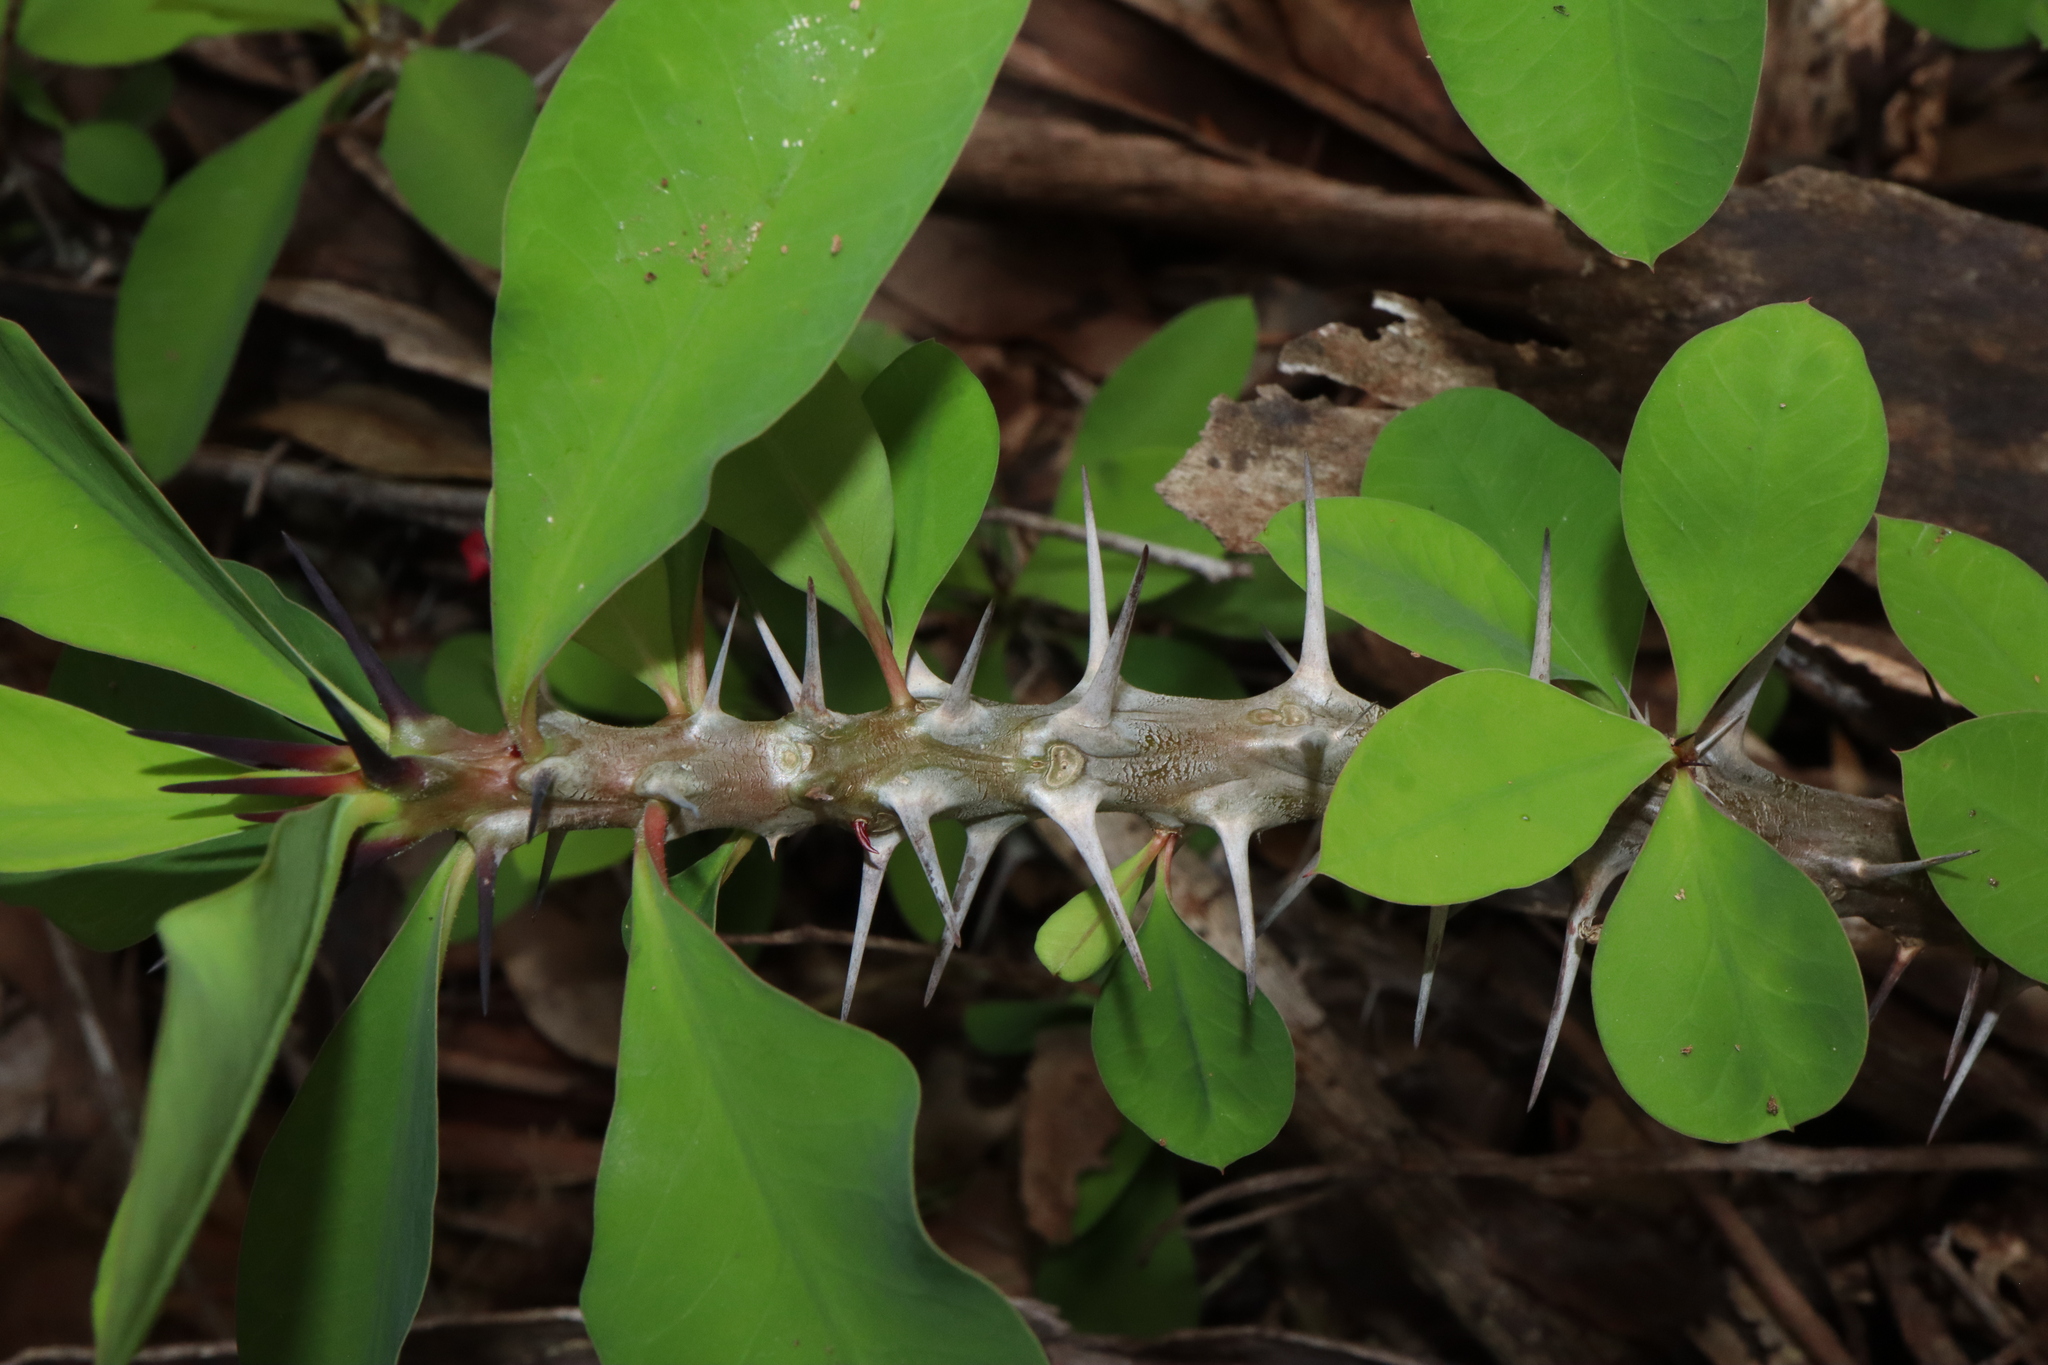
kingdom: Plantae
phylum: Tracheophyta
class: Magnoliopsida
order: Malpighiales
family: Euphorbiaceae
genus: Euphorbia
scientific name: Euphorbia milii
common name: Christplant
